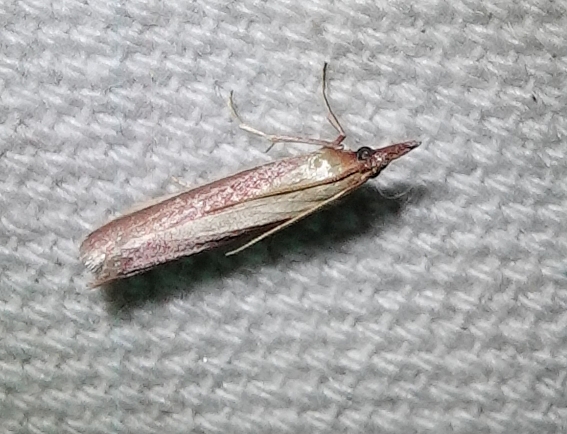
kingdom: Animalia
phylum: Arthropoda
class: Insecta
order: Lepidoptera
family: Pyralidae
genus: Peoria
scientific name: Peoria approximella
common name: Carmine snout
